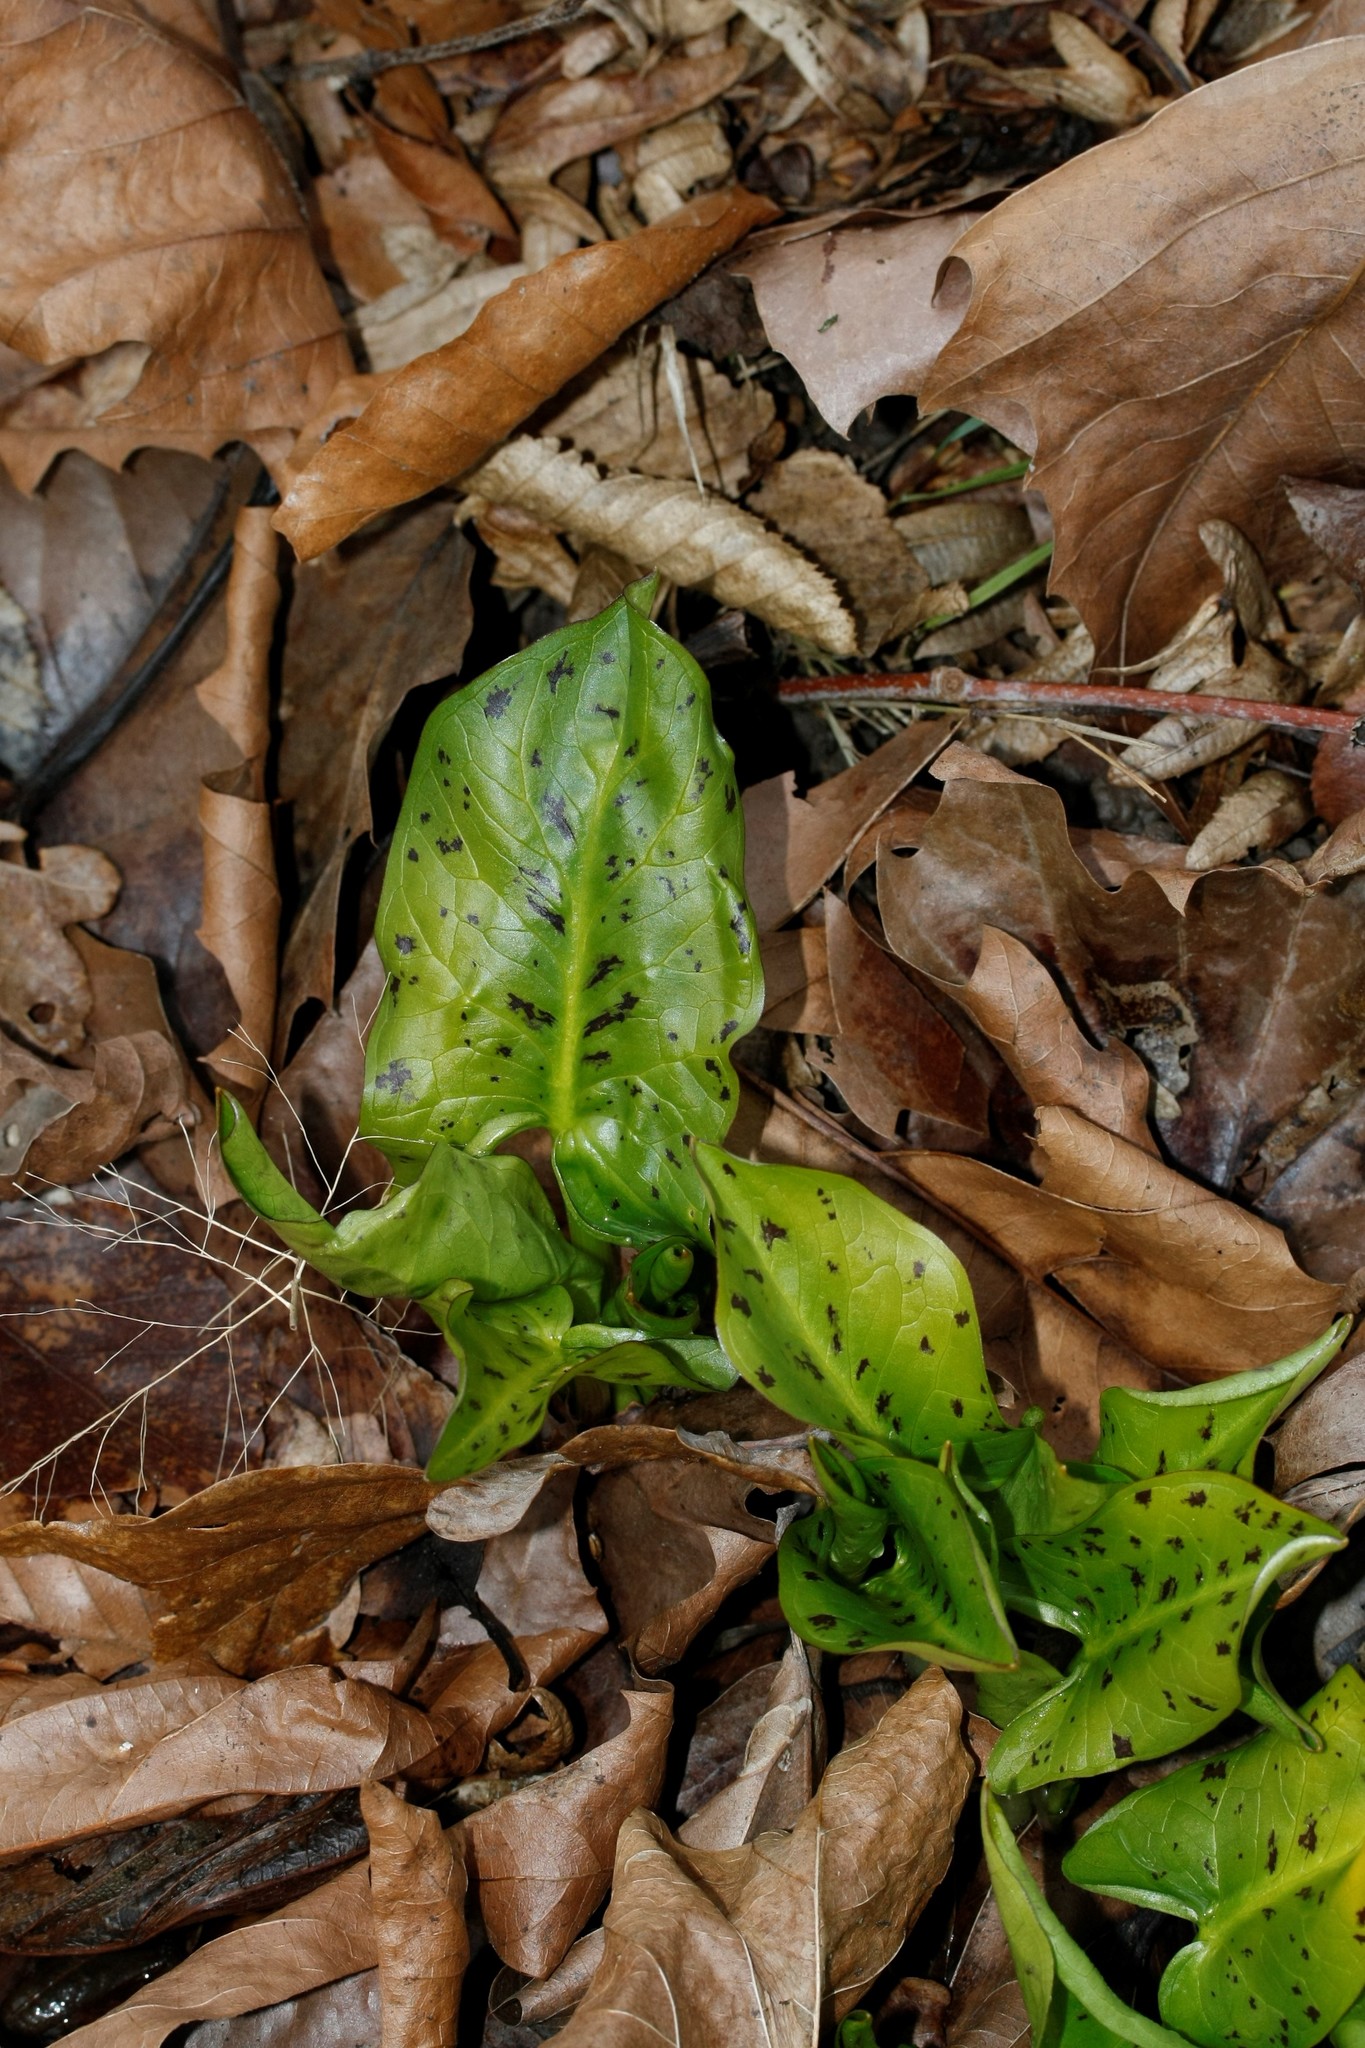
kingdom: Plantae
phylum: Tracheophyta
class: Liliopsida
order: Alismatales
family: Araceae
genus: Arum
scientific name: Arum maculatum
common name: Lords-and-ladies
